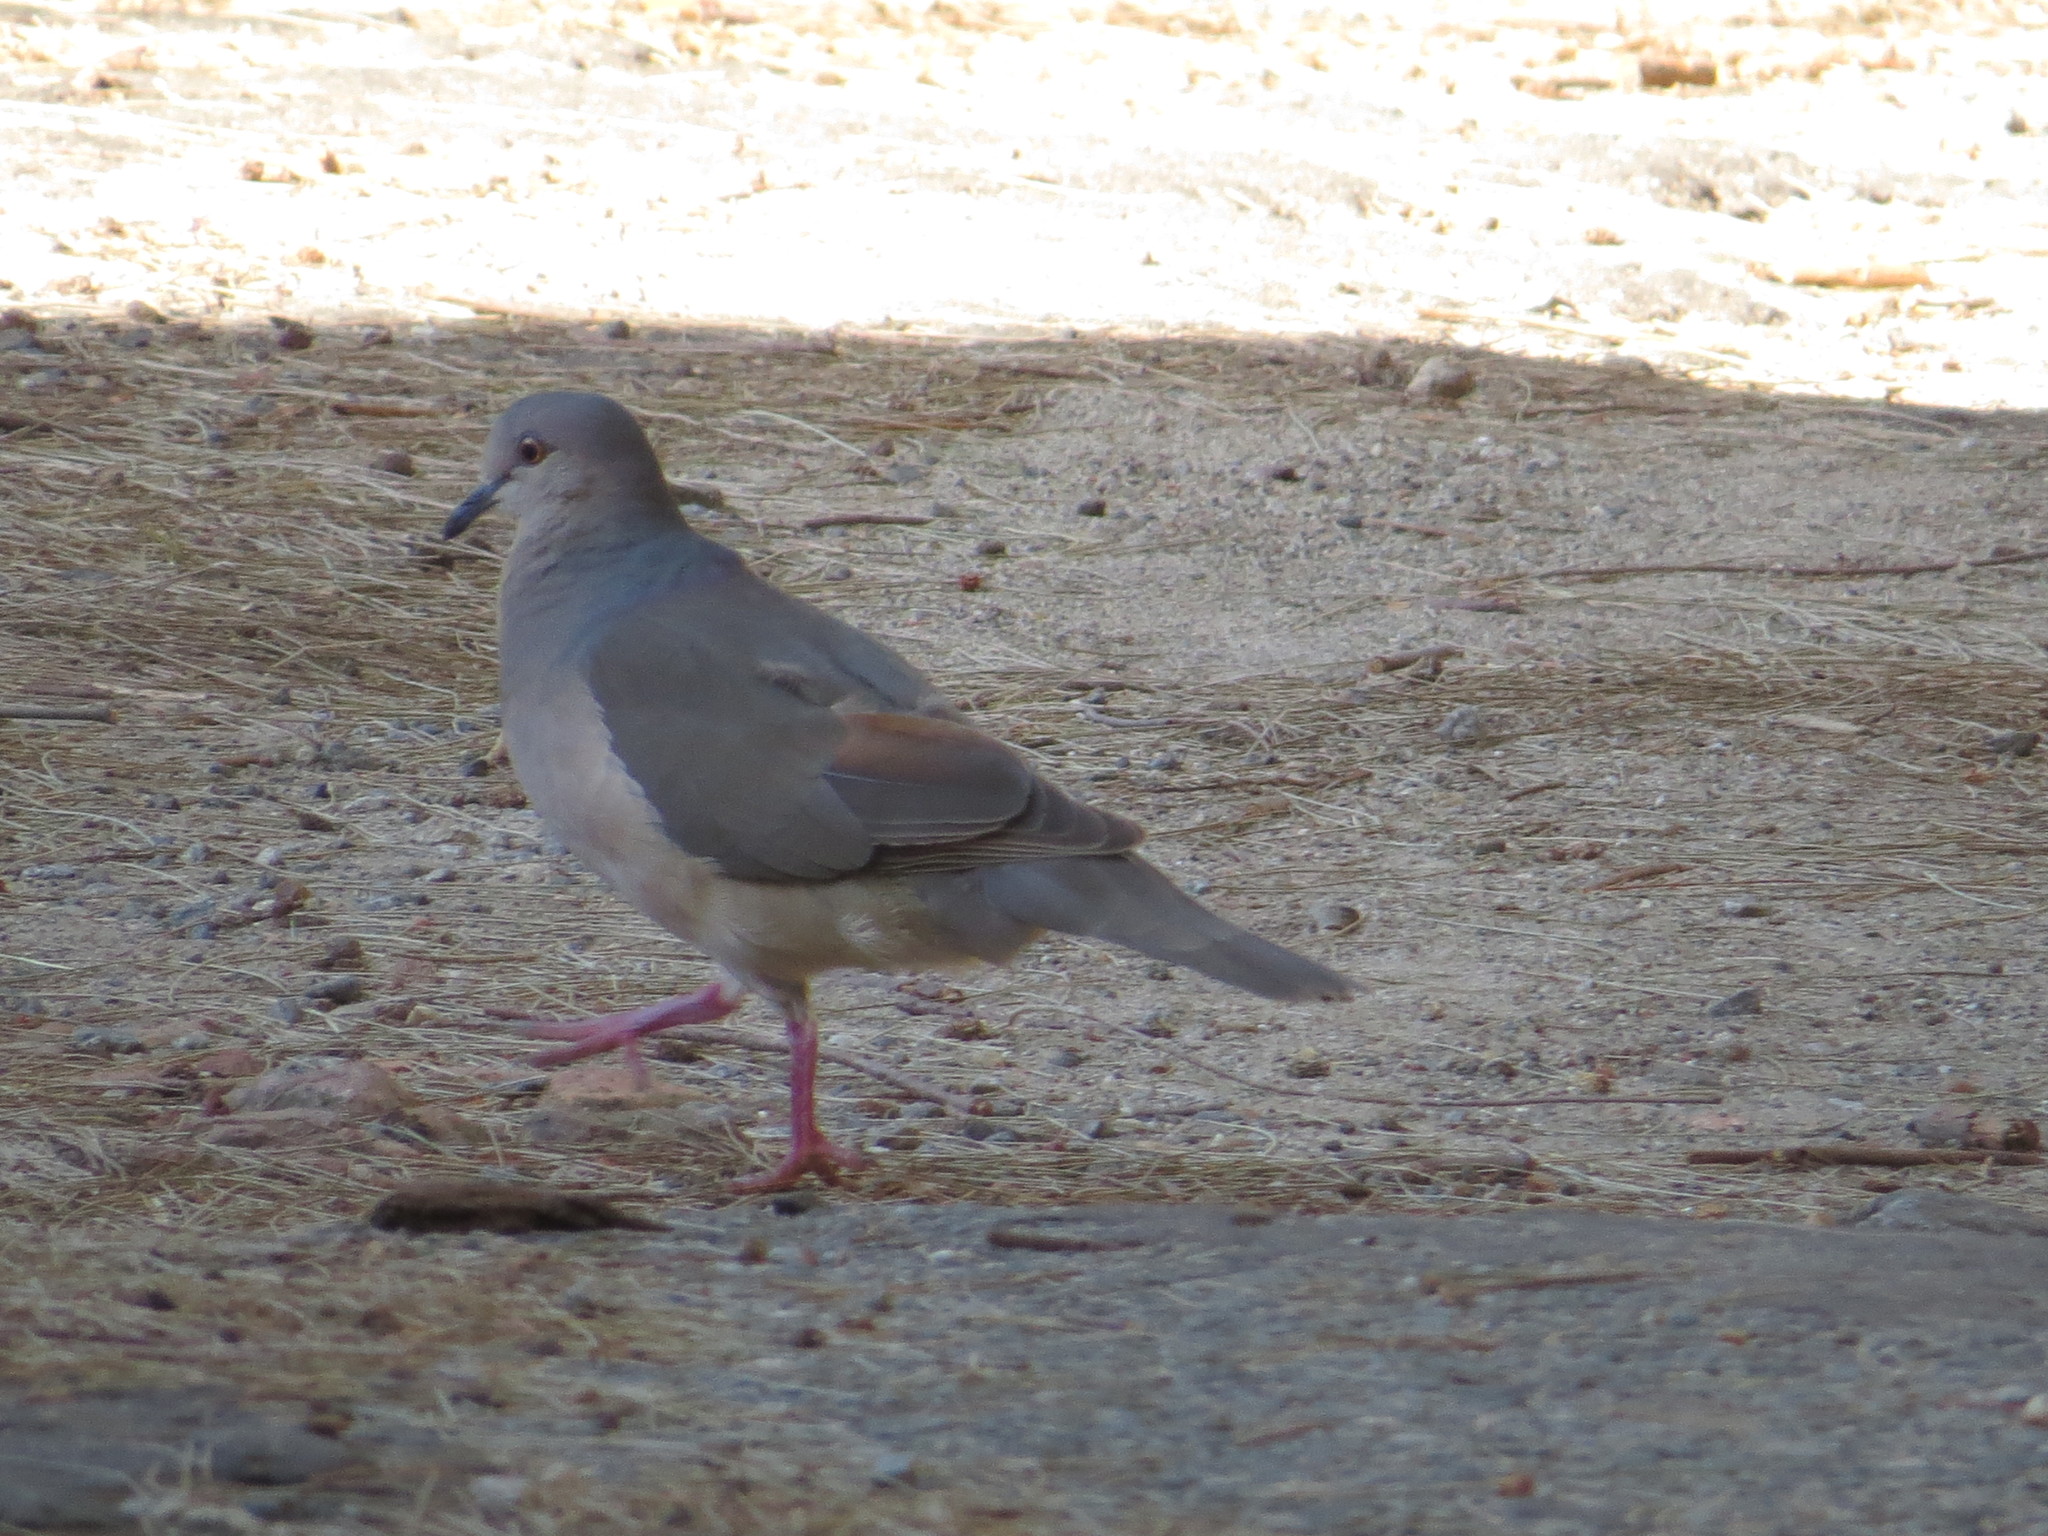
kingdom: Animalia
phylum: Chordata
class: Aves
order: Columbiformes
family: Columbidae
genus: Leptotila
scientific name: Leptotila verreauxi
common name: White-tipped dove
